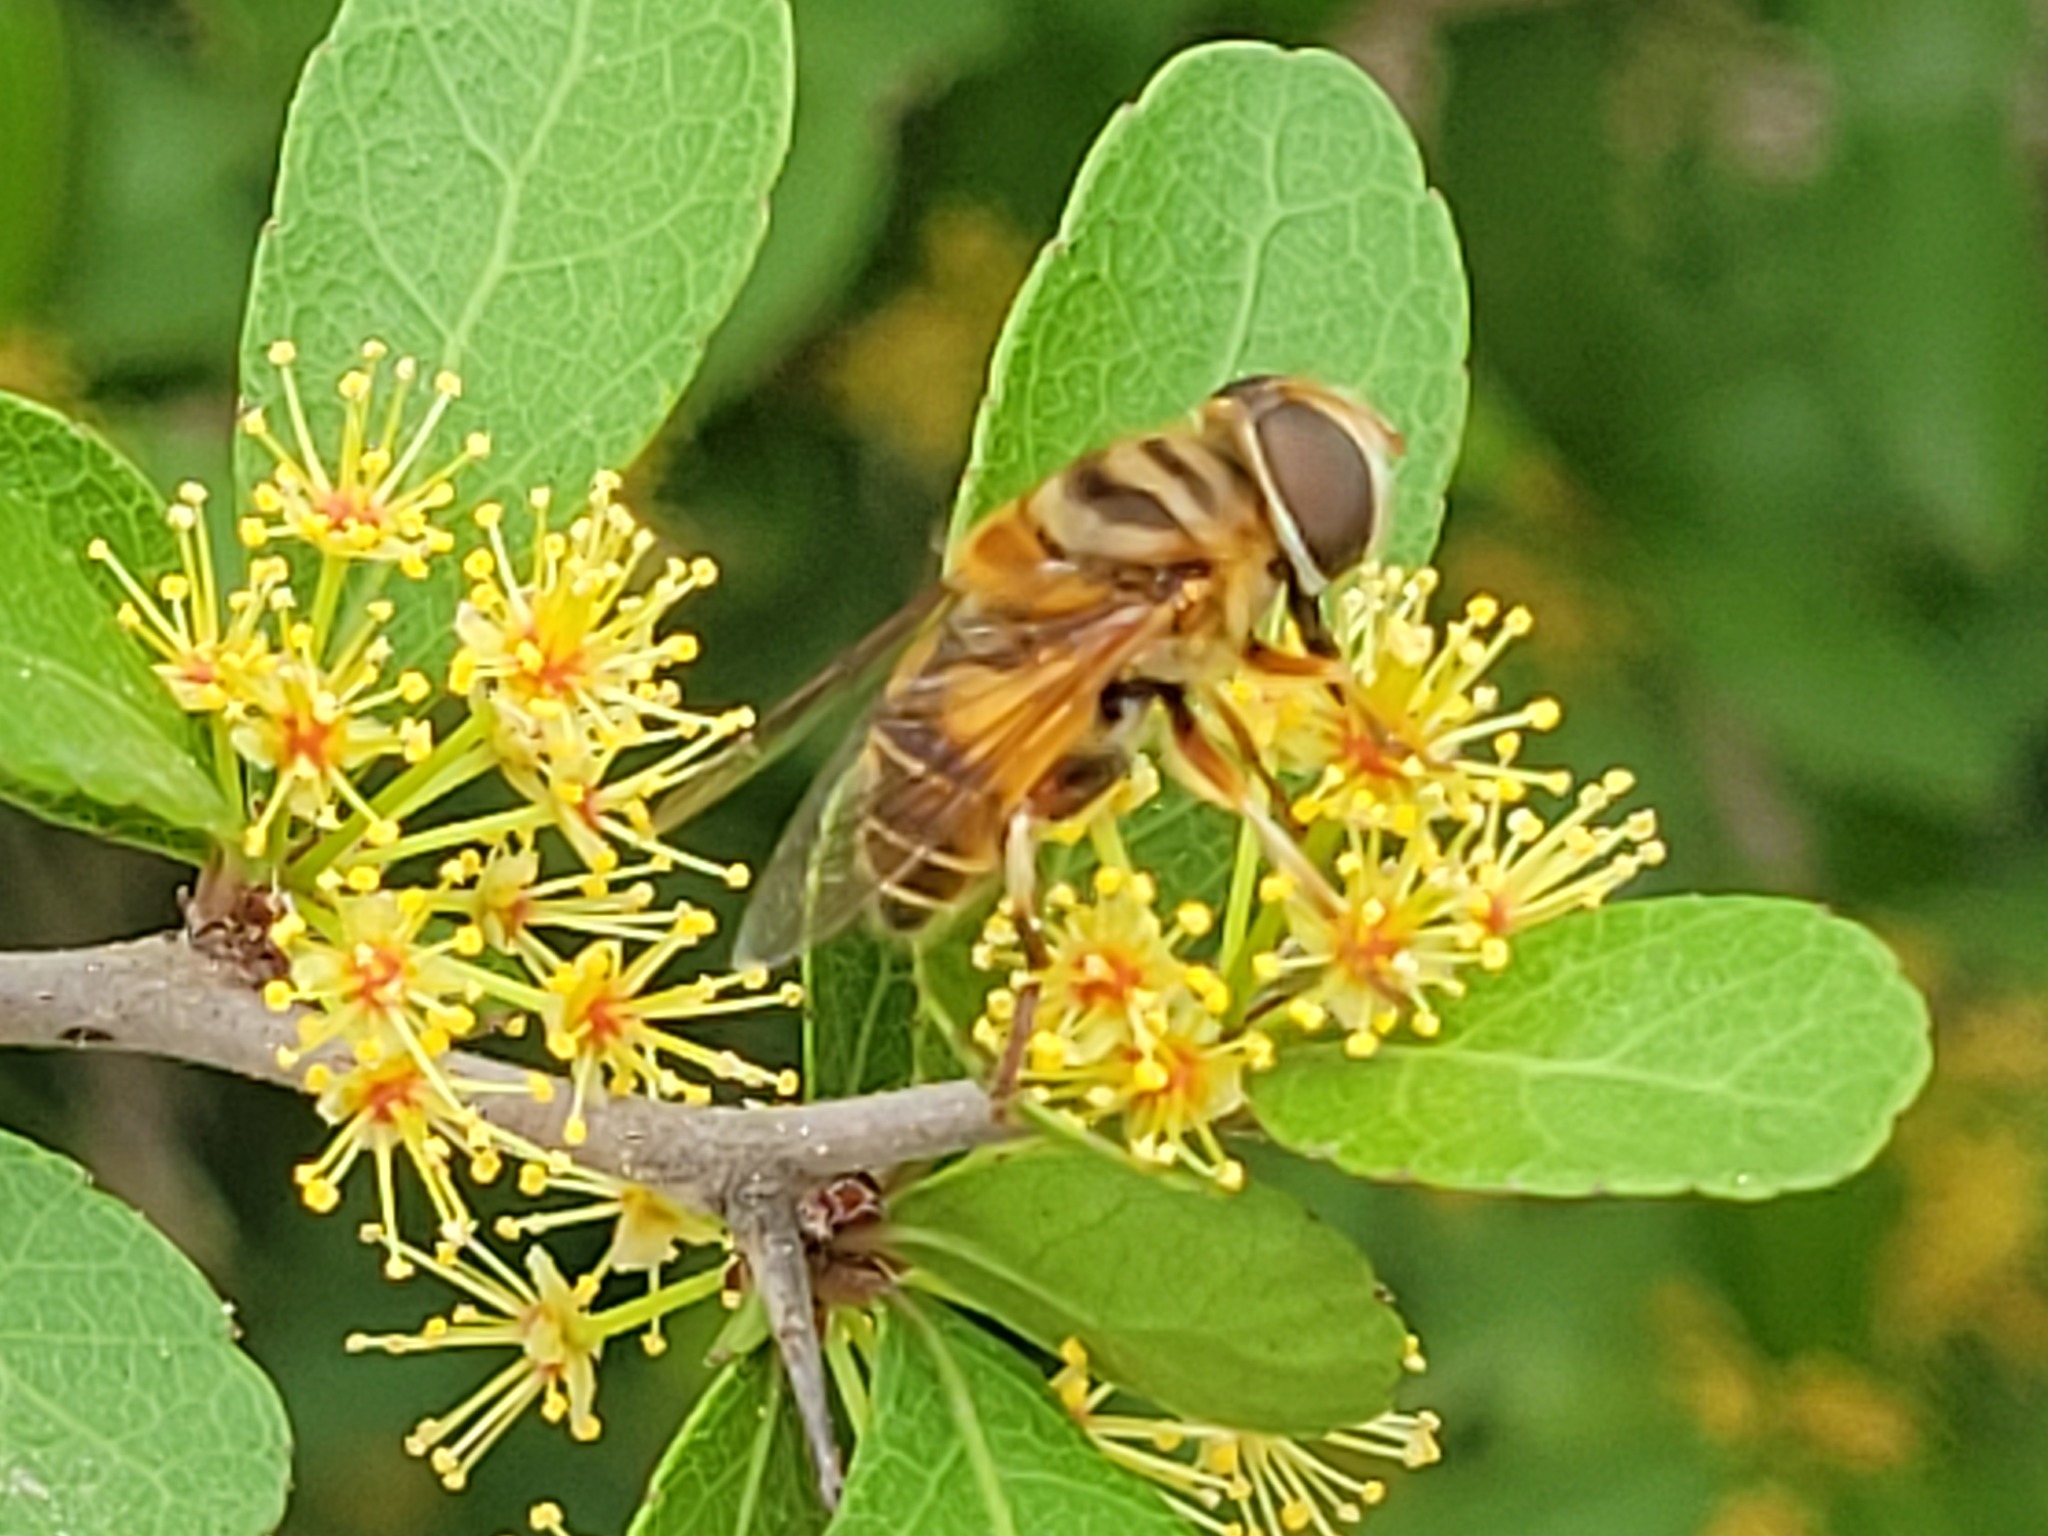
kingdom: Animalia
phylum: Arthropoda
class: Insecta
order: Diptera
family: Syrphidae
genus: Palpada
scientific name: Palpada vinetorum
